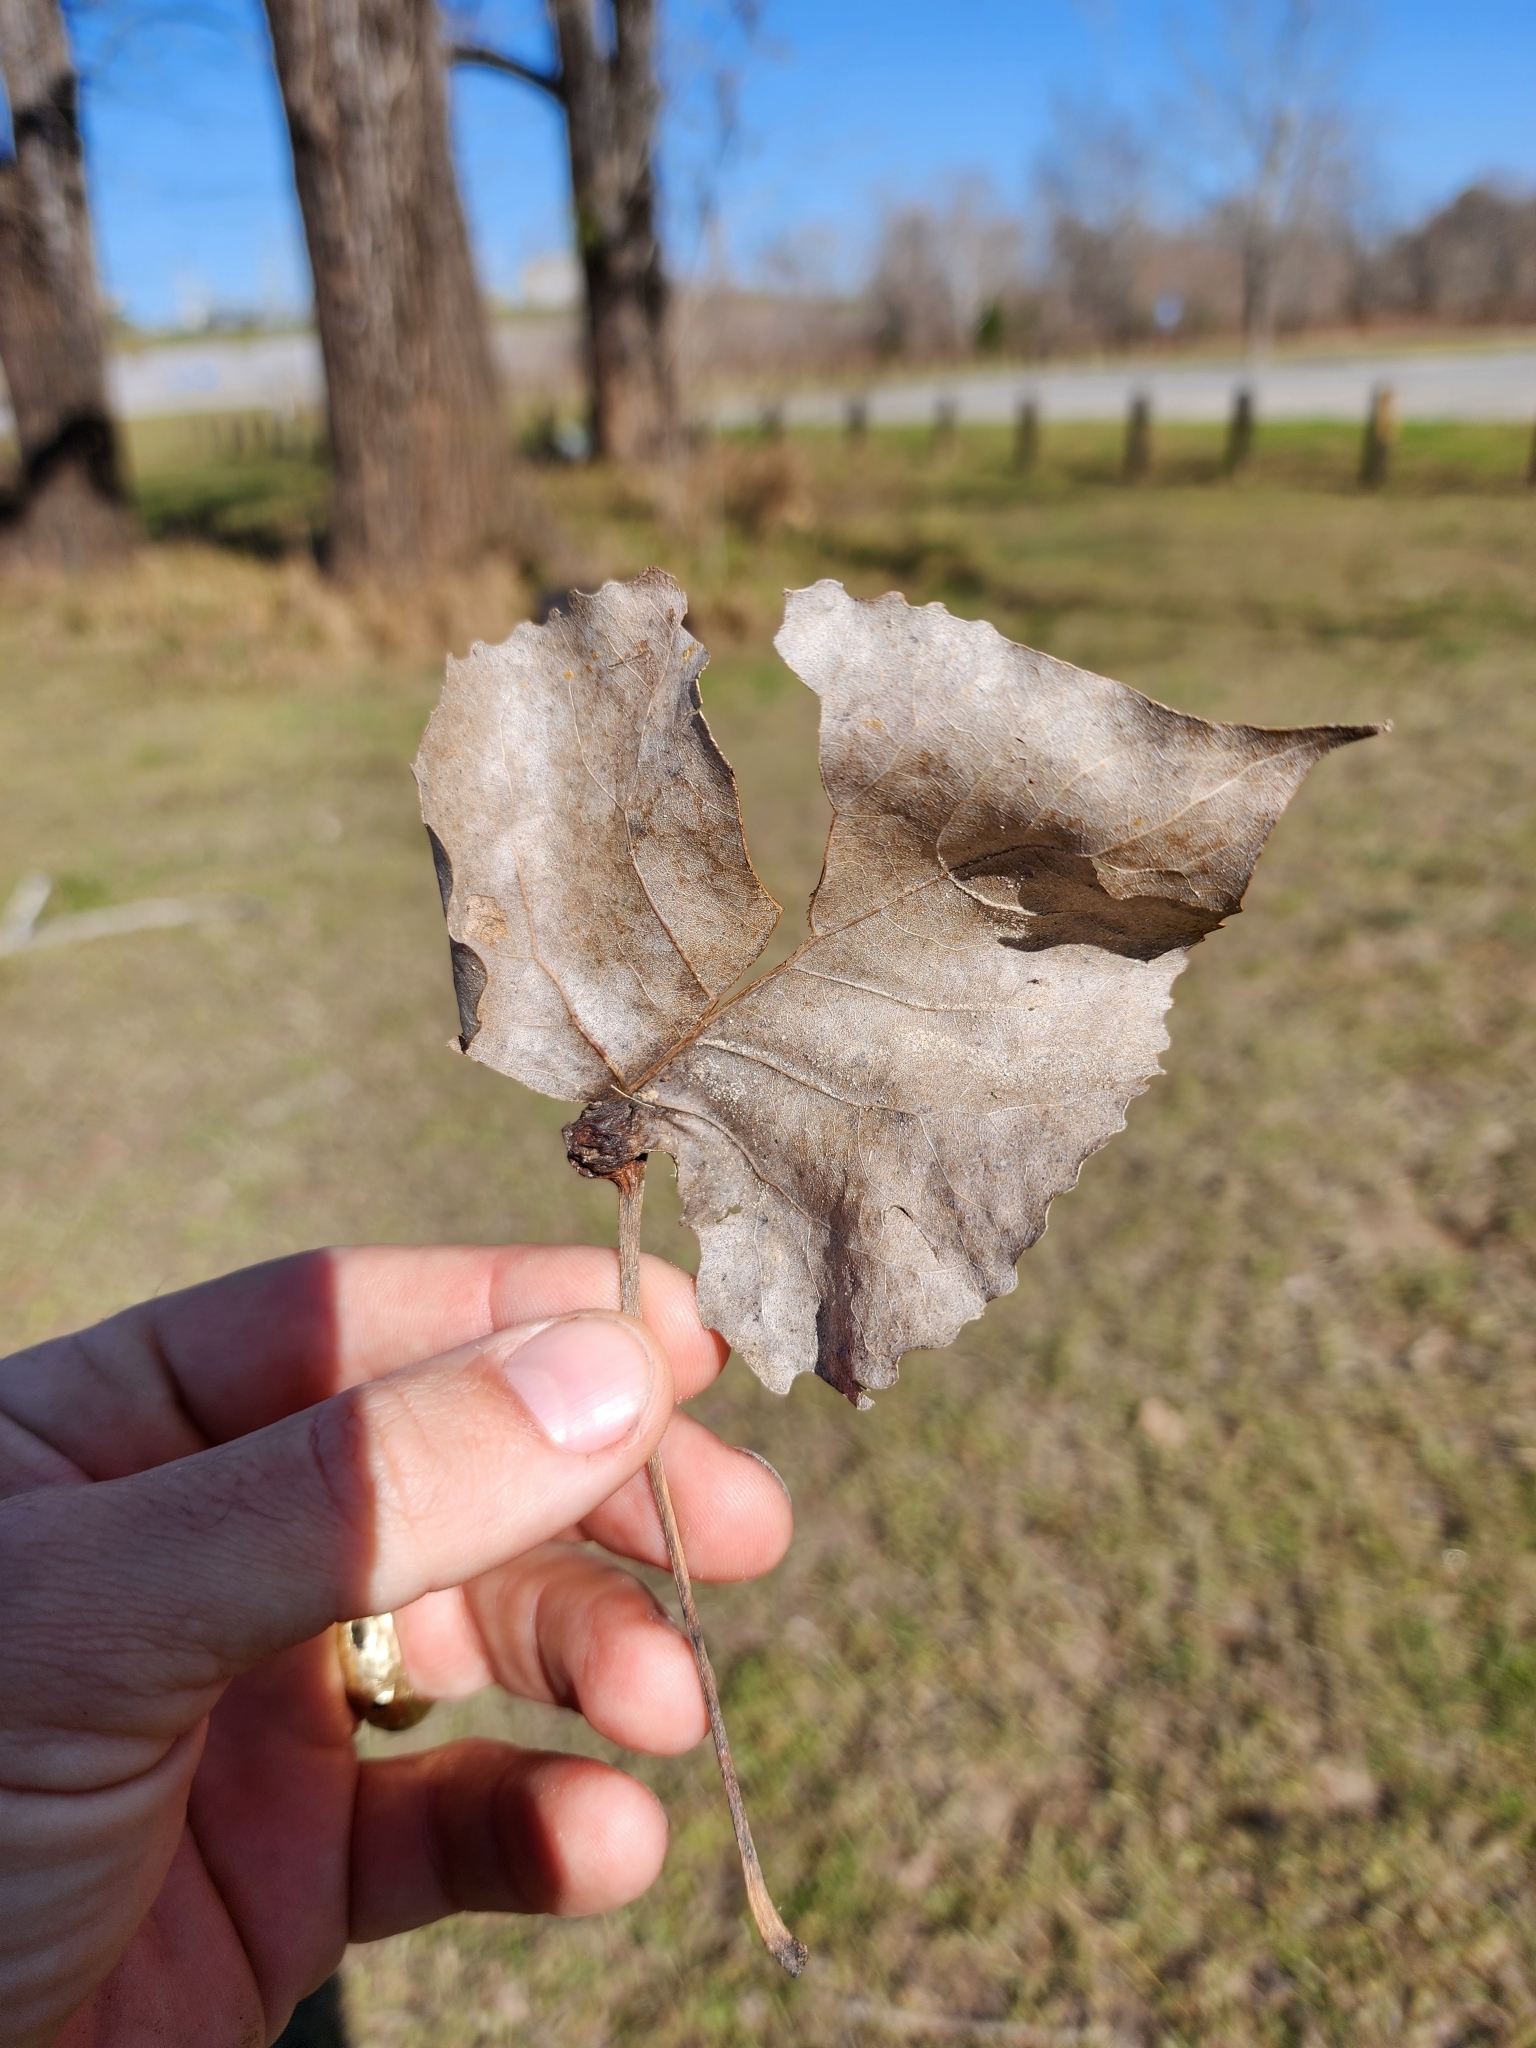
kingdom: Plantae
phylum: Tracheophyta
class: Magnoliopsida
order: Malpighiales
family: Salicaceae
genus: Populus
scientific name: Populus deltoides
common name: Eastern cottonwood
